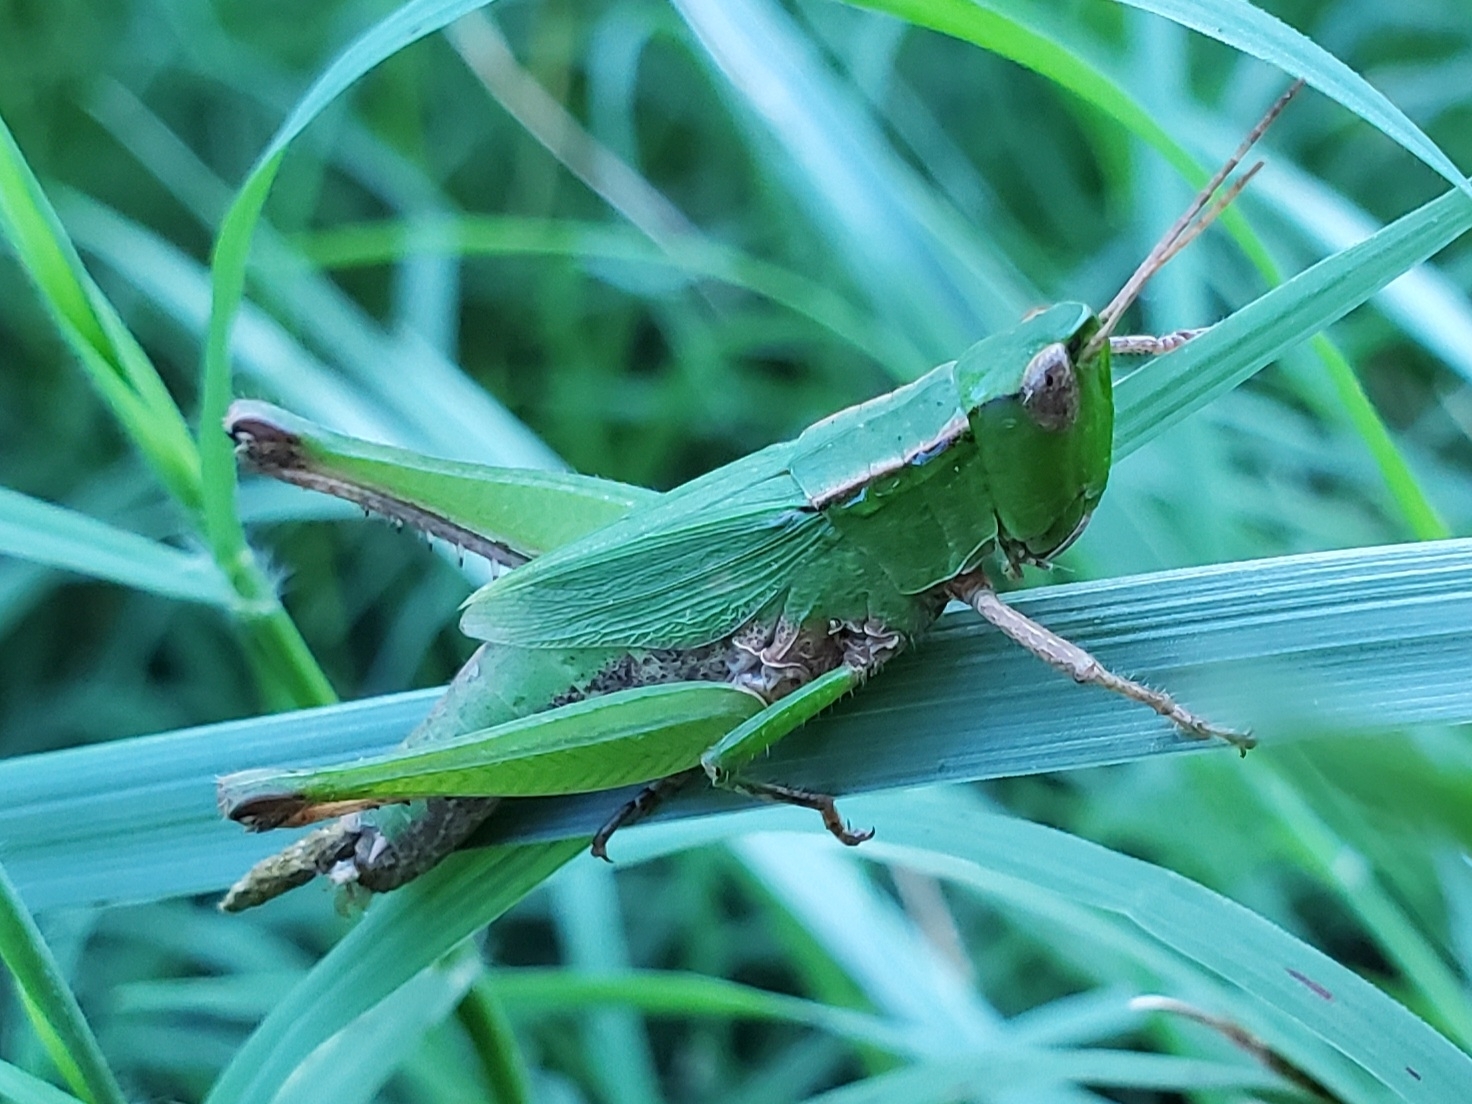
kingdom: Animalia
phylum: Arthropoda
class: Insecta
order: Orthoptera
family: Acrididae
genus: Dichromorpha
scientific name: Dichromorpha viridis
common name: Short-winged green grasshopper
